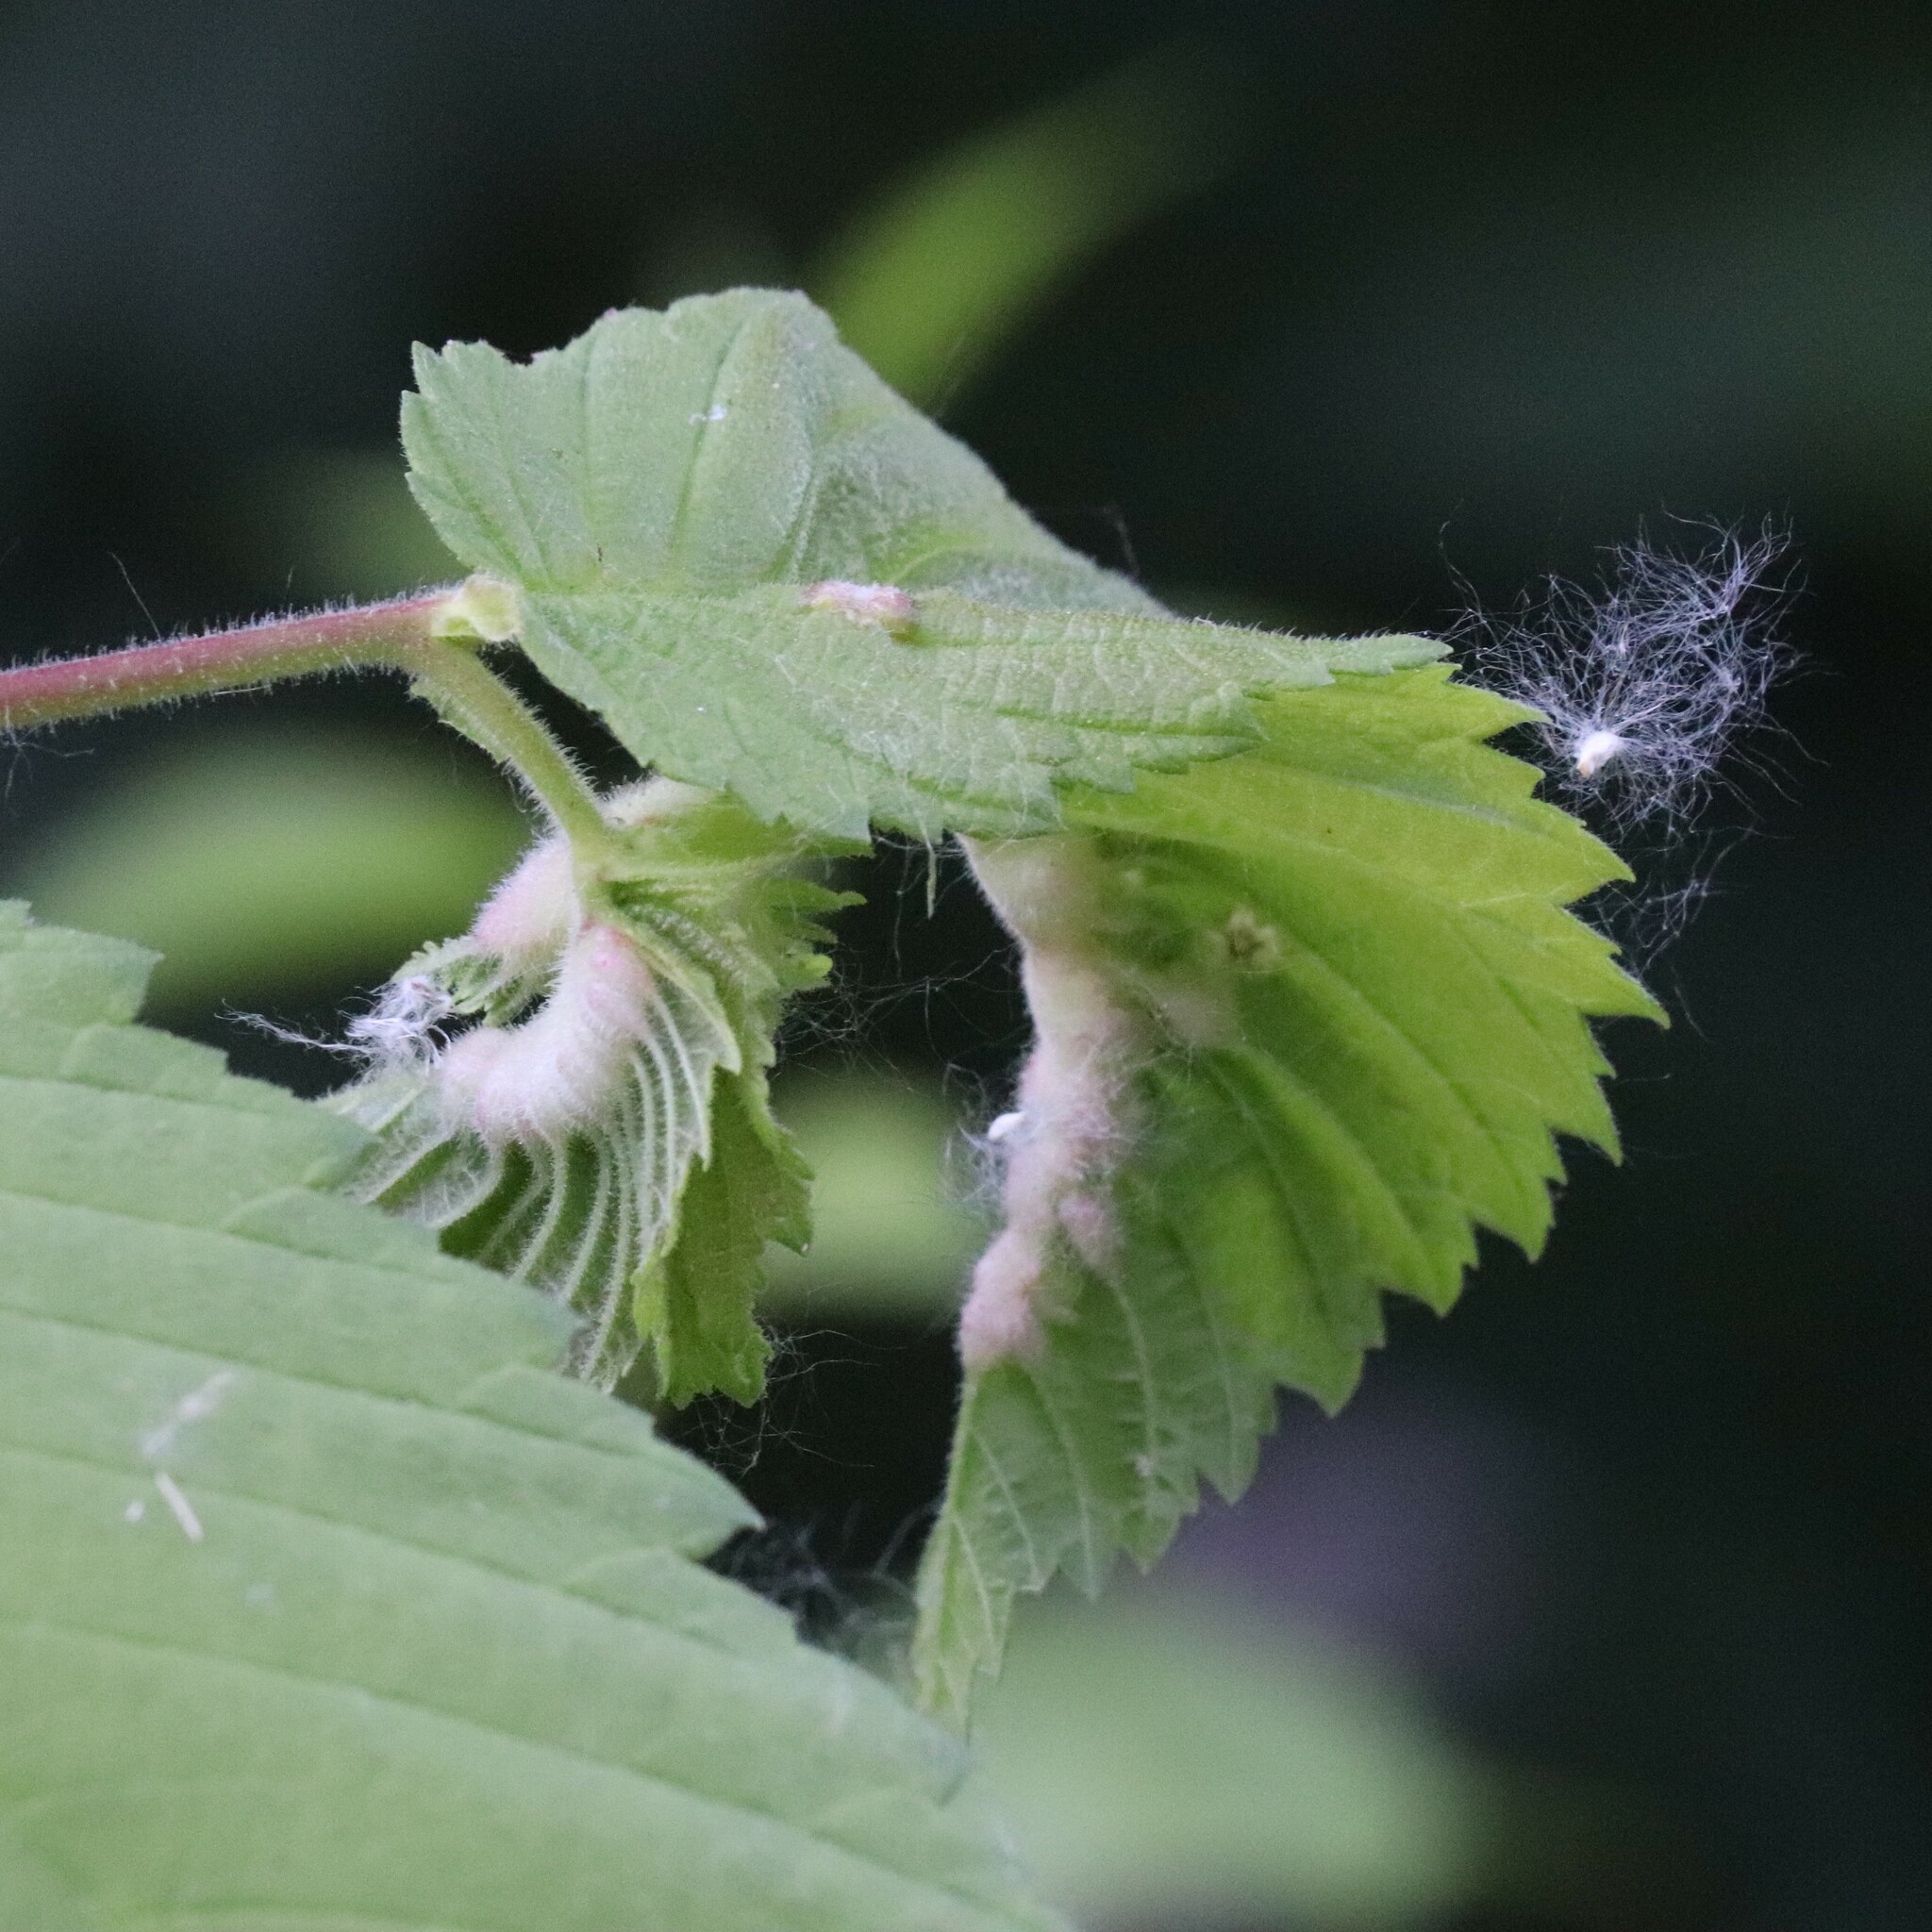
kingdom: Animalia
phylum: Arthropoda
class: Insecta
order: Diptera
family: Cecidomyiidae
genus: Janetiella
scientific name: Janetiella ulmii
